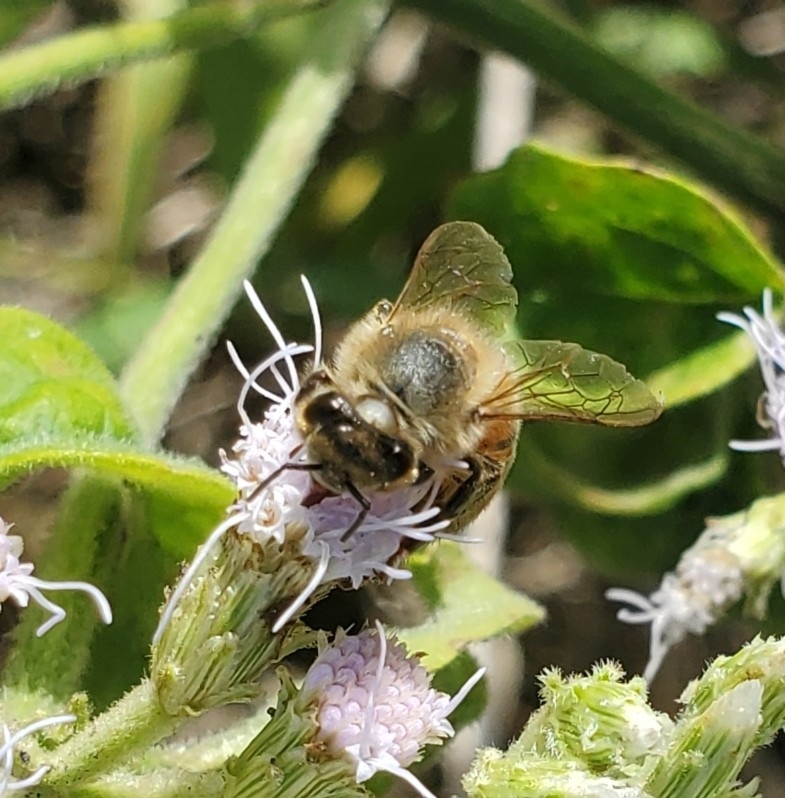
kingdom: Animalia
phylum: Arthropoda
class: Insecta
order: Hymenoptera
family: Apidae
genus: Apis
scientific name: Apis mellifera
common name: Honey bee
